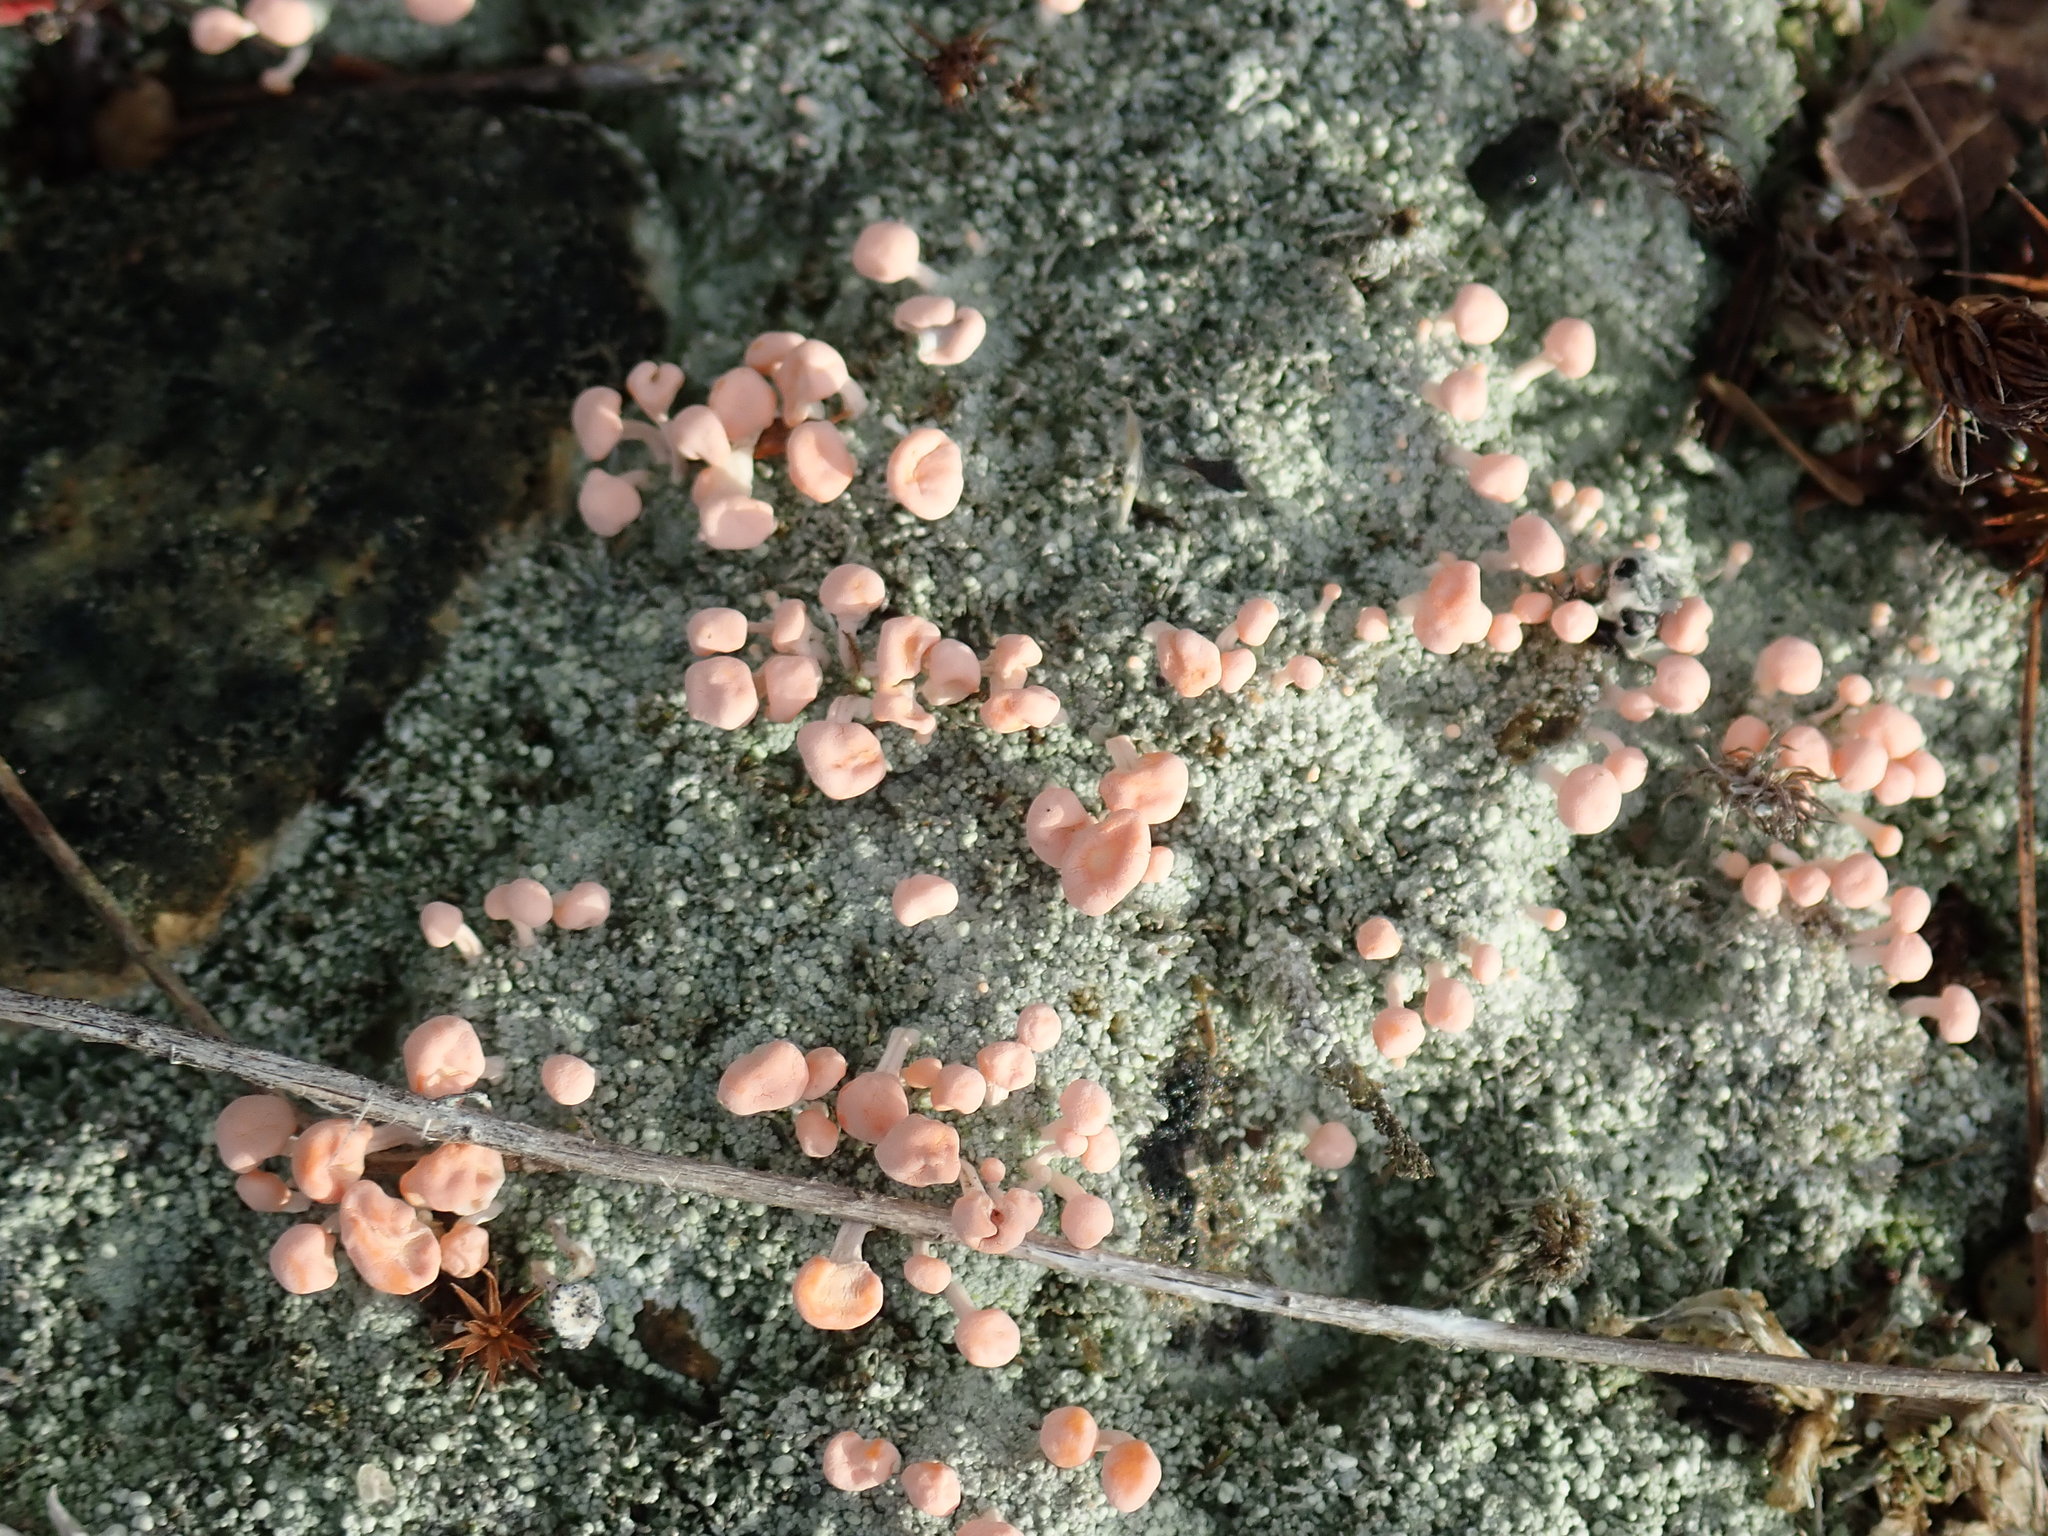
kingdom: Fungi
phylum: Ascomycota
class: Lecanoromycetes
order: Pertusariales
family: Icmadophilaceae
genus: Dibaeis
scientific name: Dibaeis baeomyces
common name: Pink earth lichen
